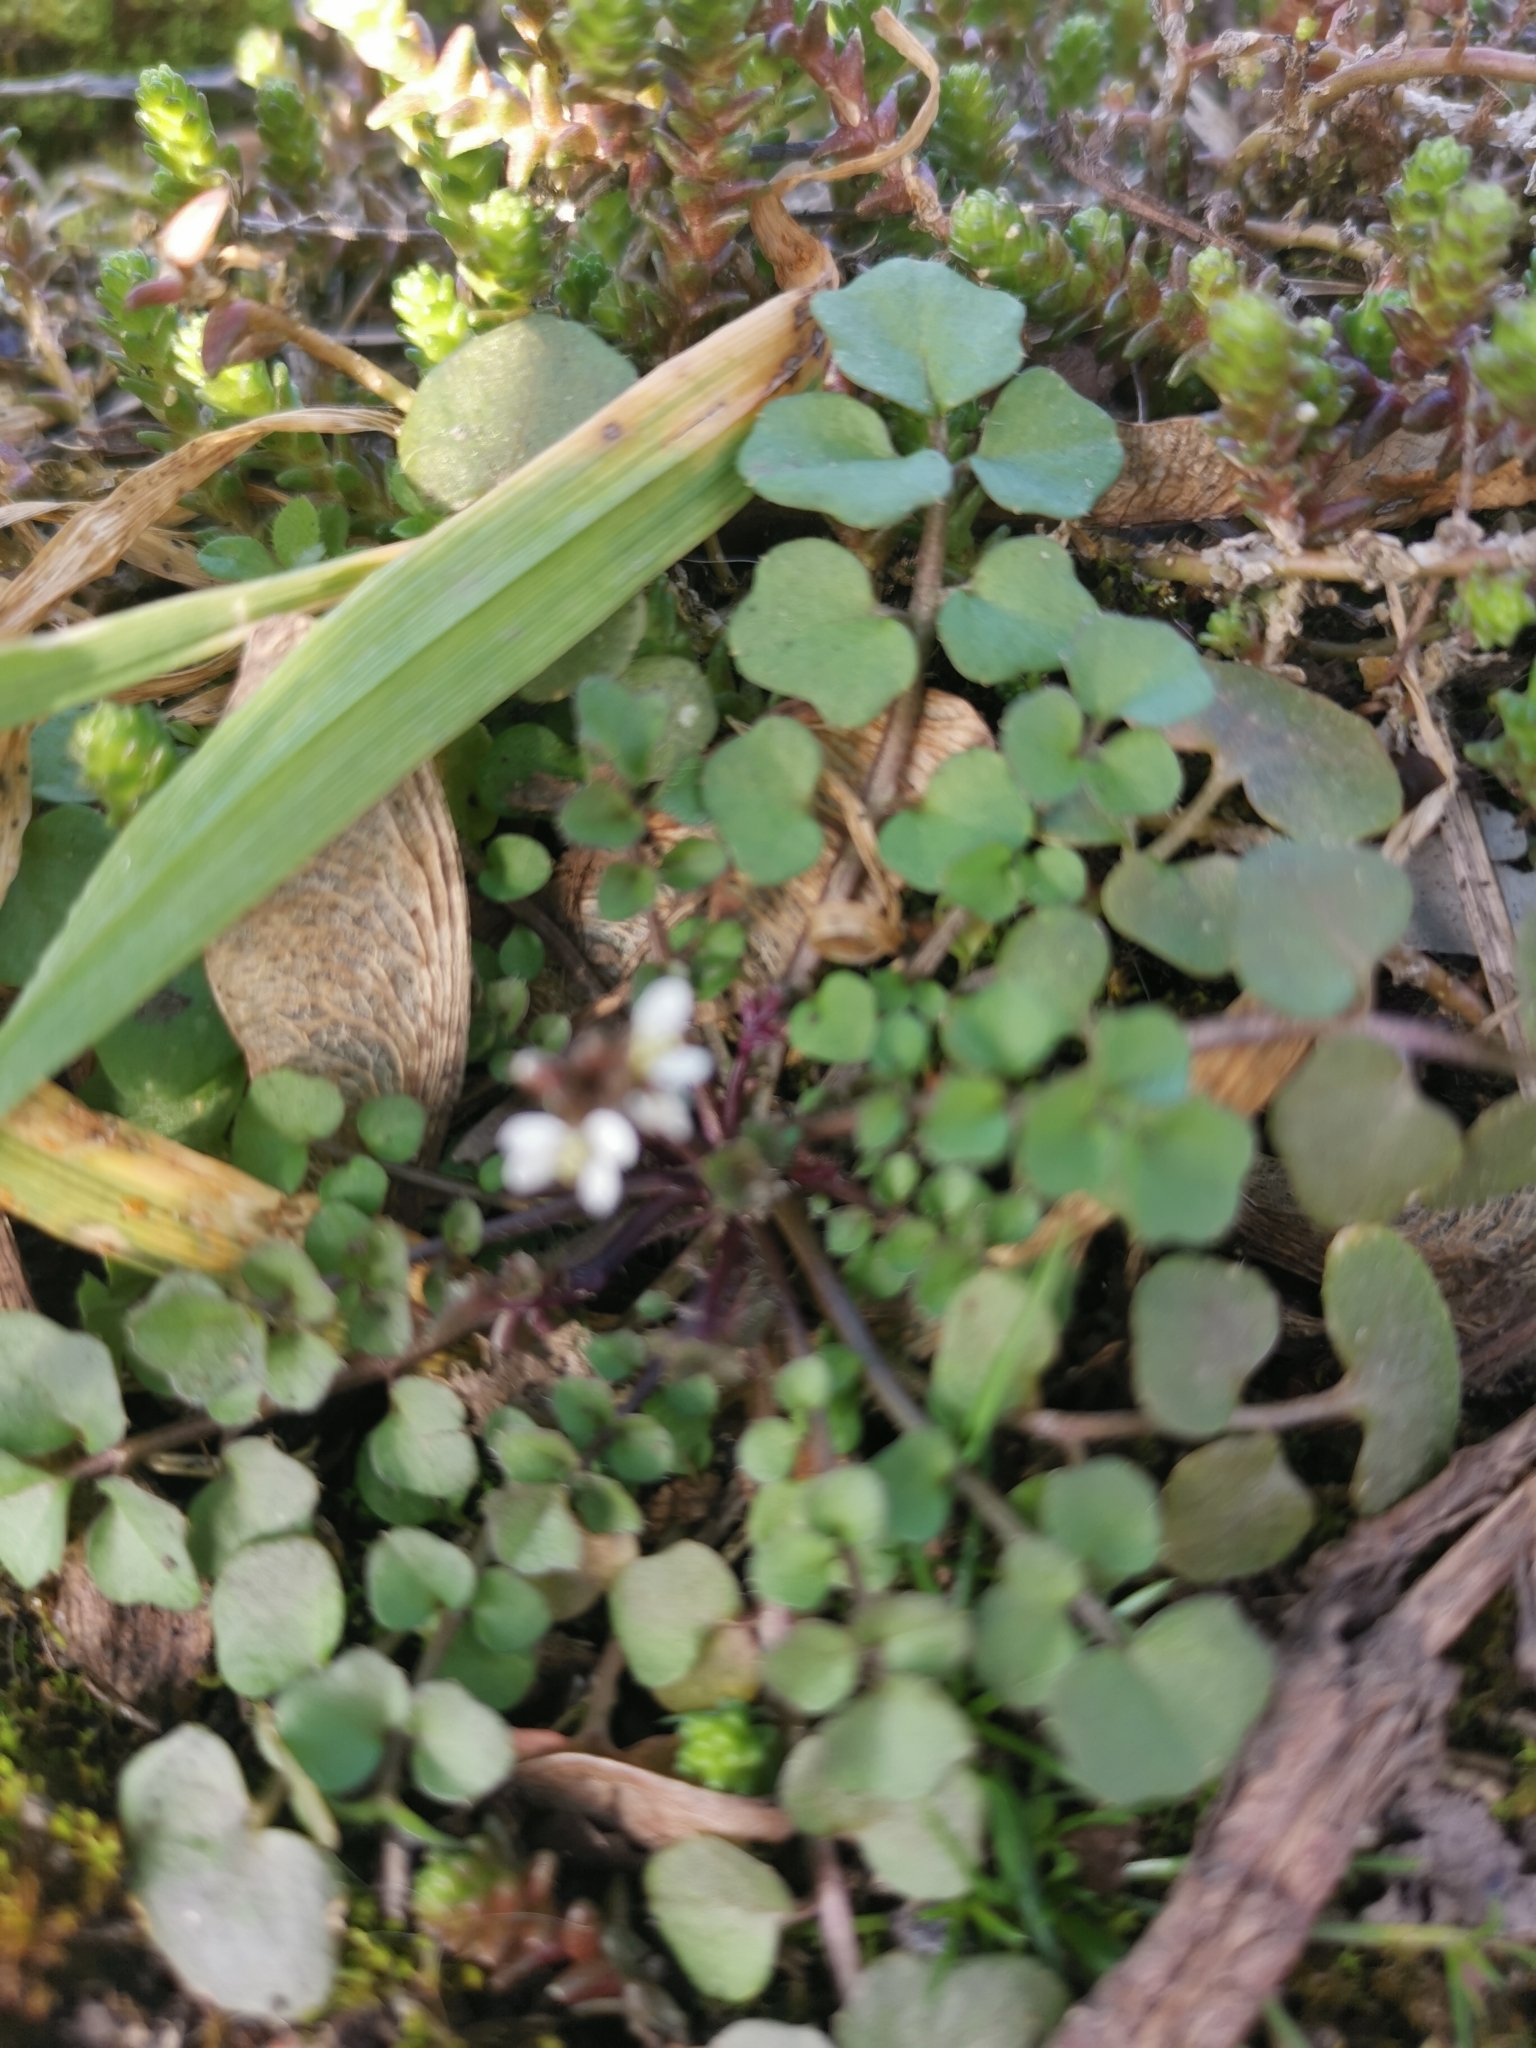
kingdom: Plantae
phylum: Tracheophyta
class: Magnoliopsida
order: Brassicales
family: Brassicaceae
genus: Cardamine
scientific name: Cardamine hirsuta
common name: Hairy bittercress
